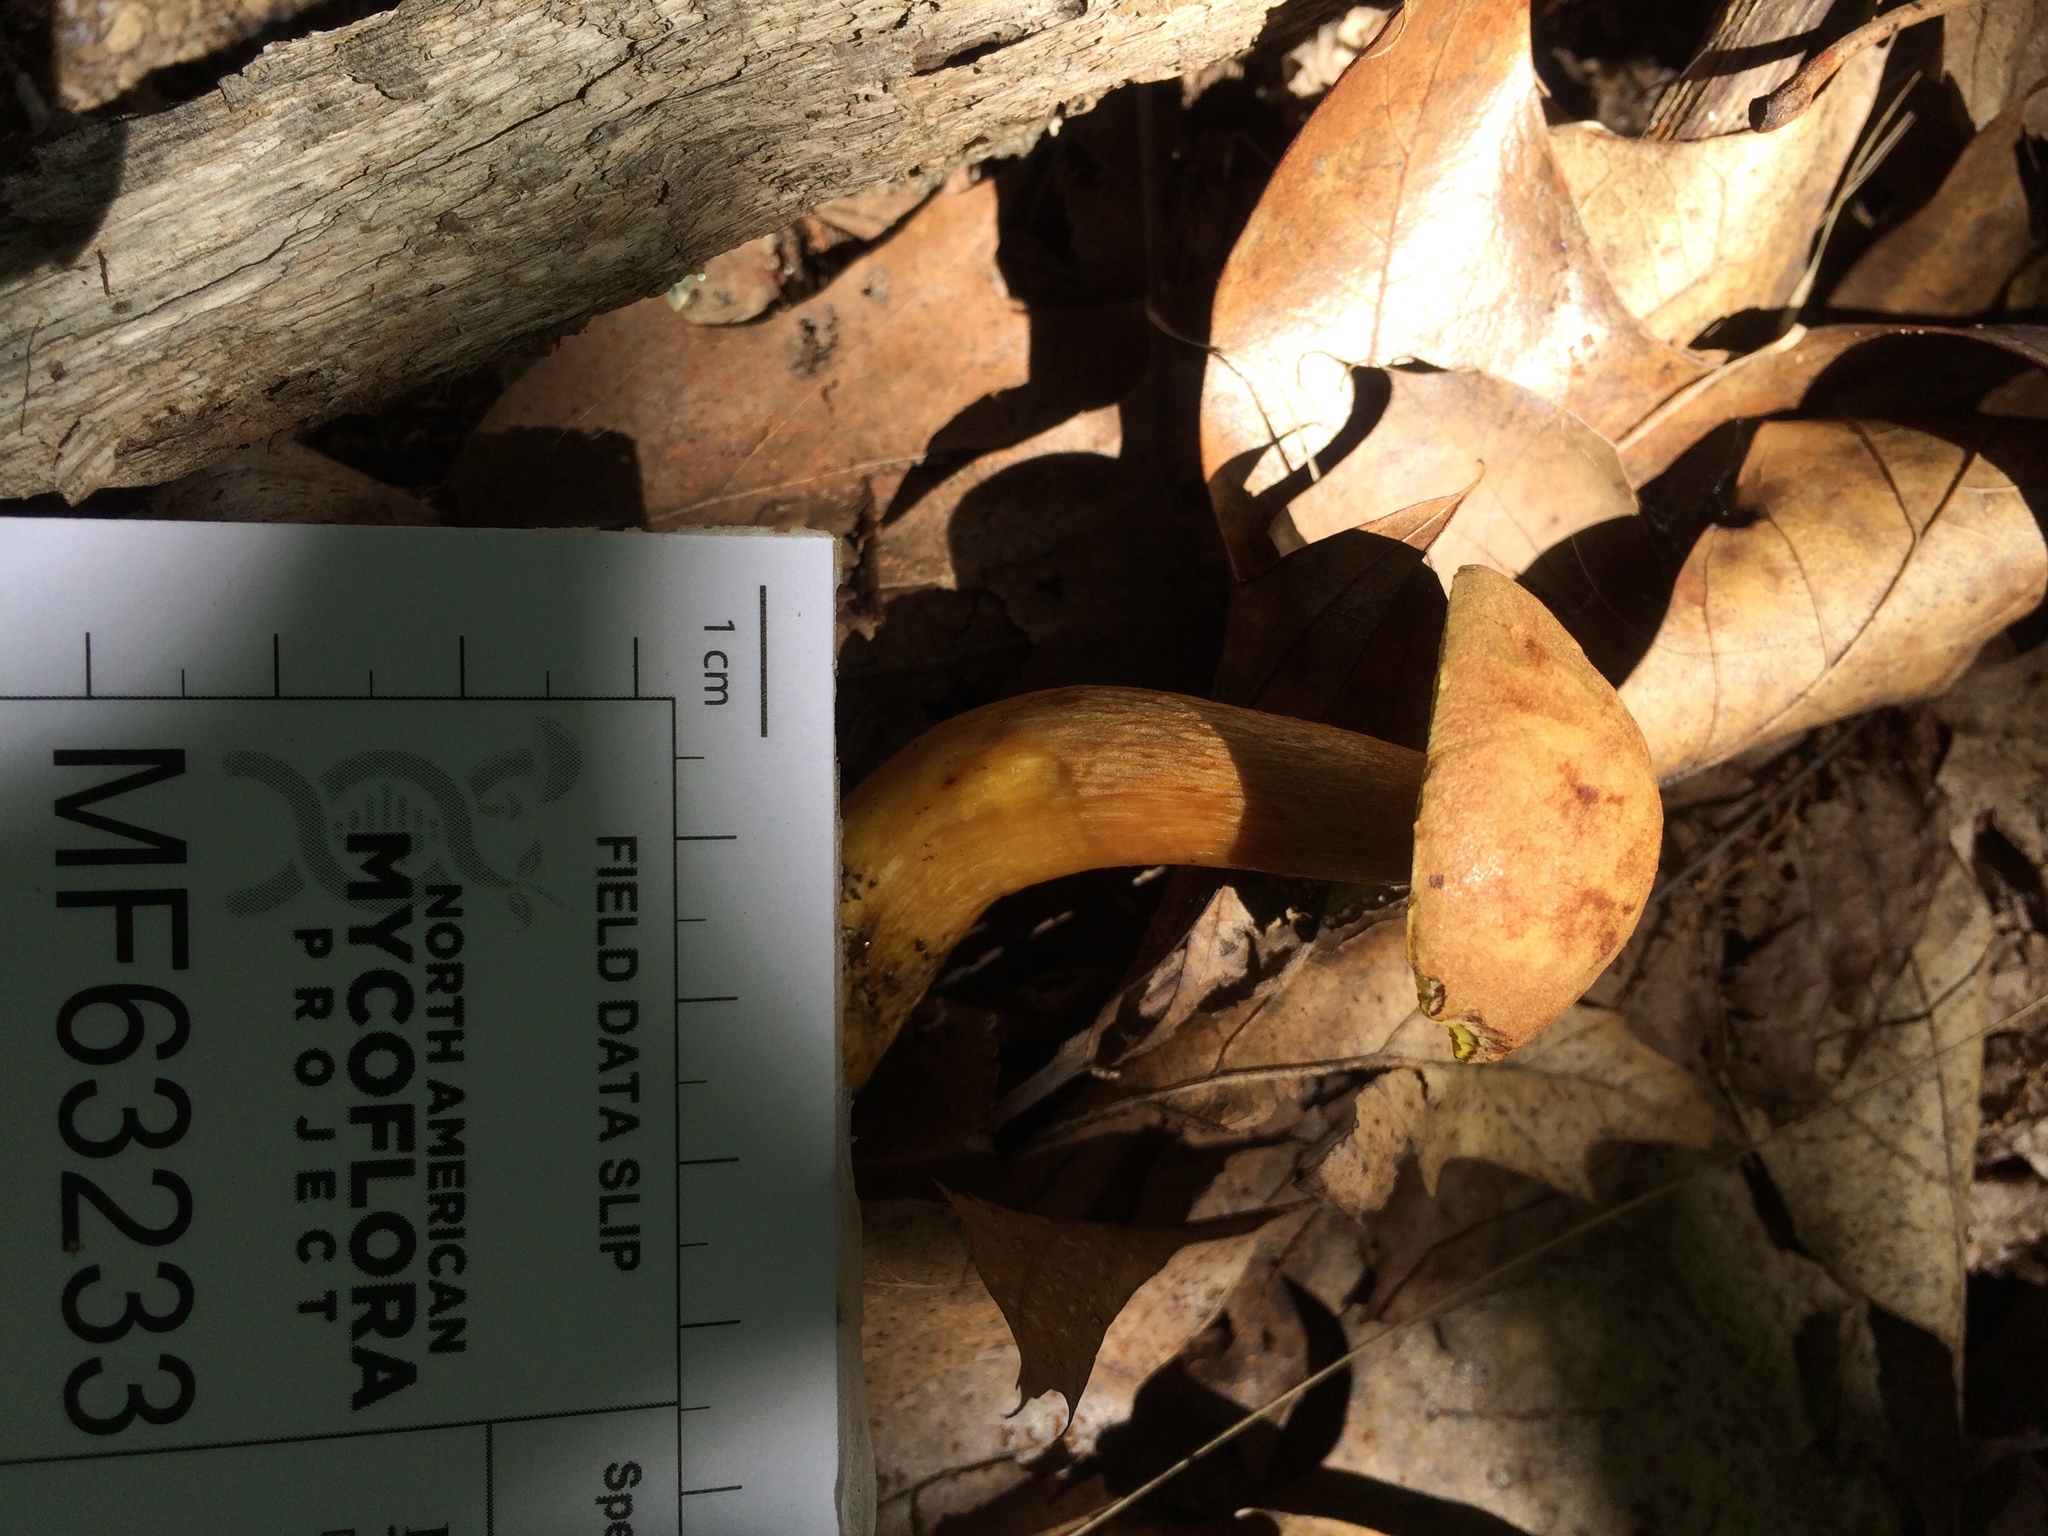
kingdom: Fungi
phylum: Basidiomycota
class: Agaricomycetes
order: Boletales
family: Boletaceae
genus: Aureoboletus
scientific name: Aureoboletus innixus
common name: Clustered brown bolete
